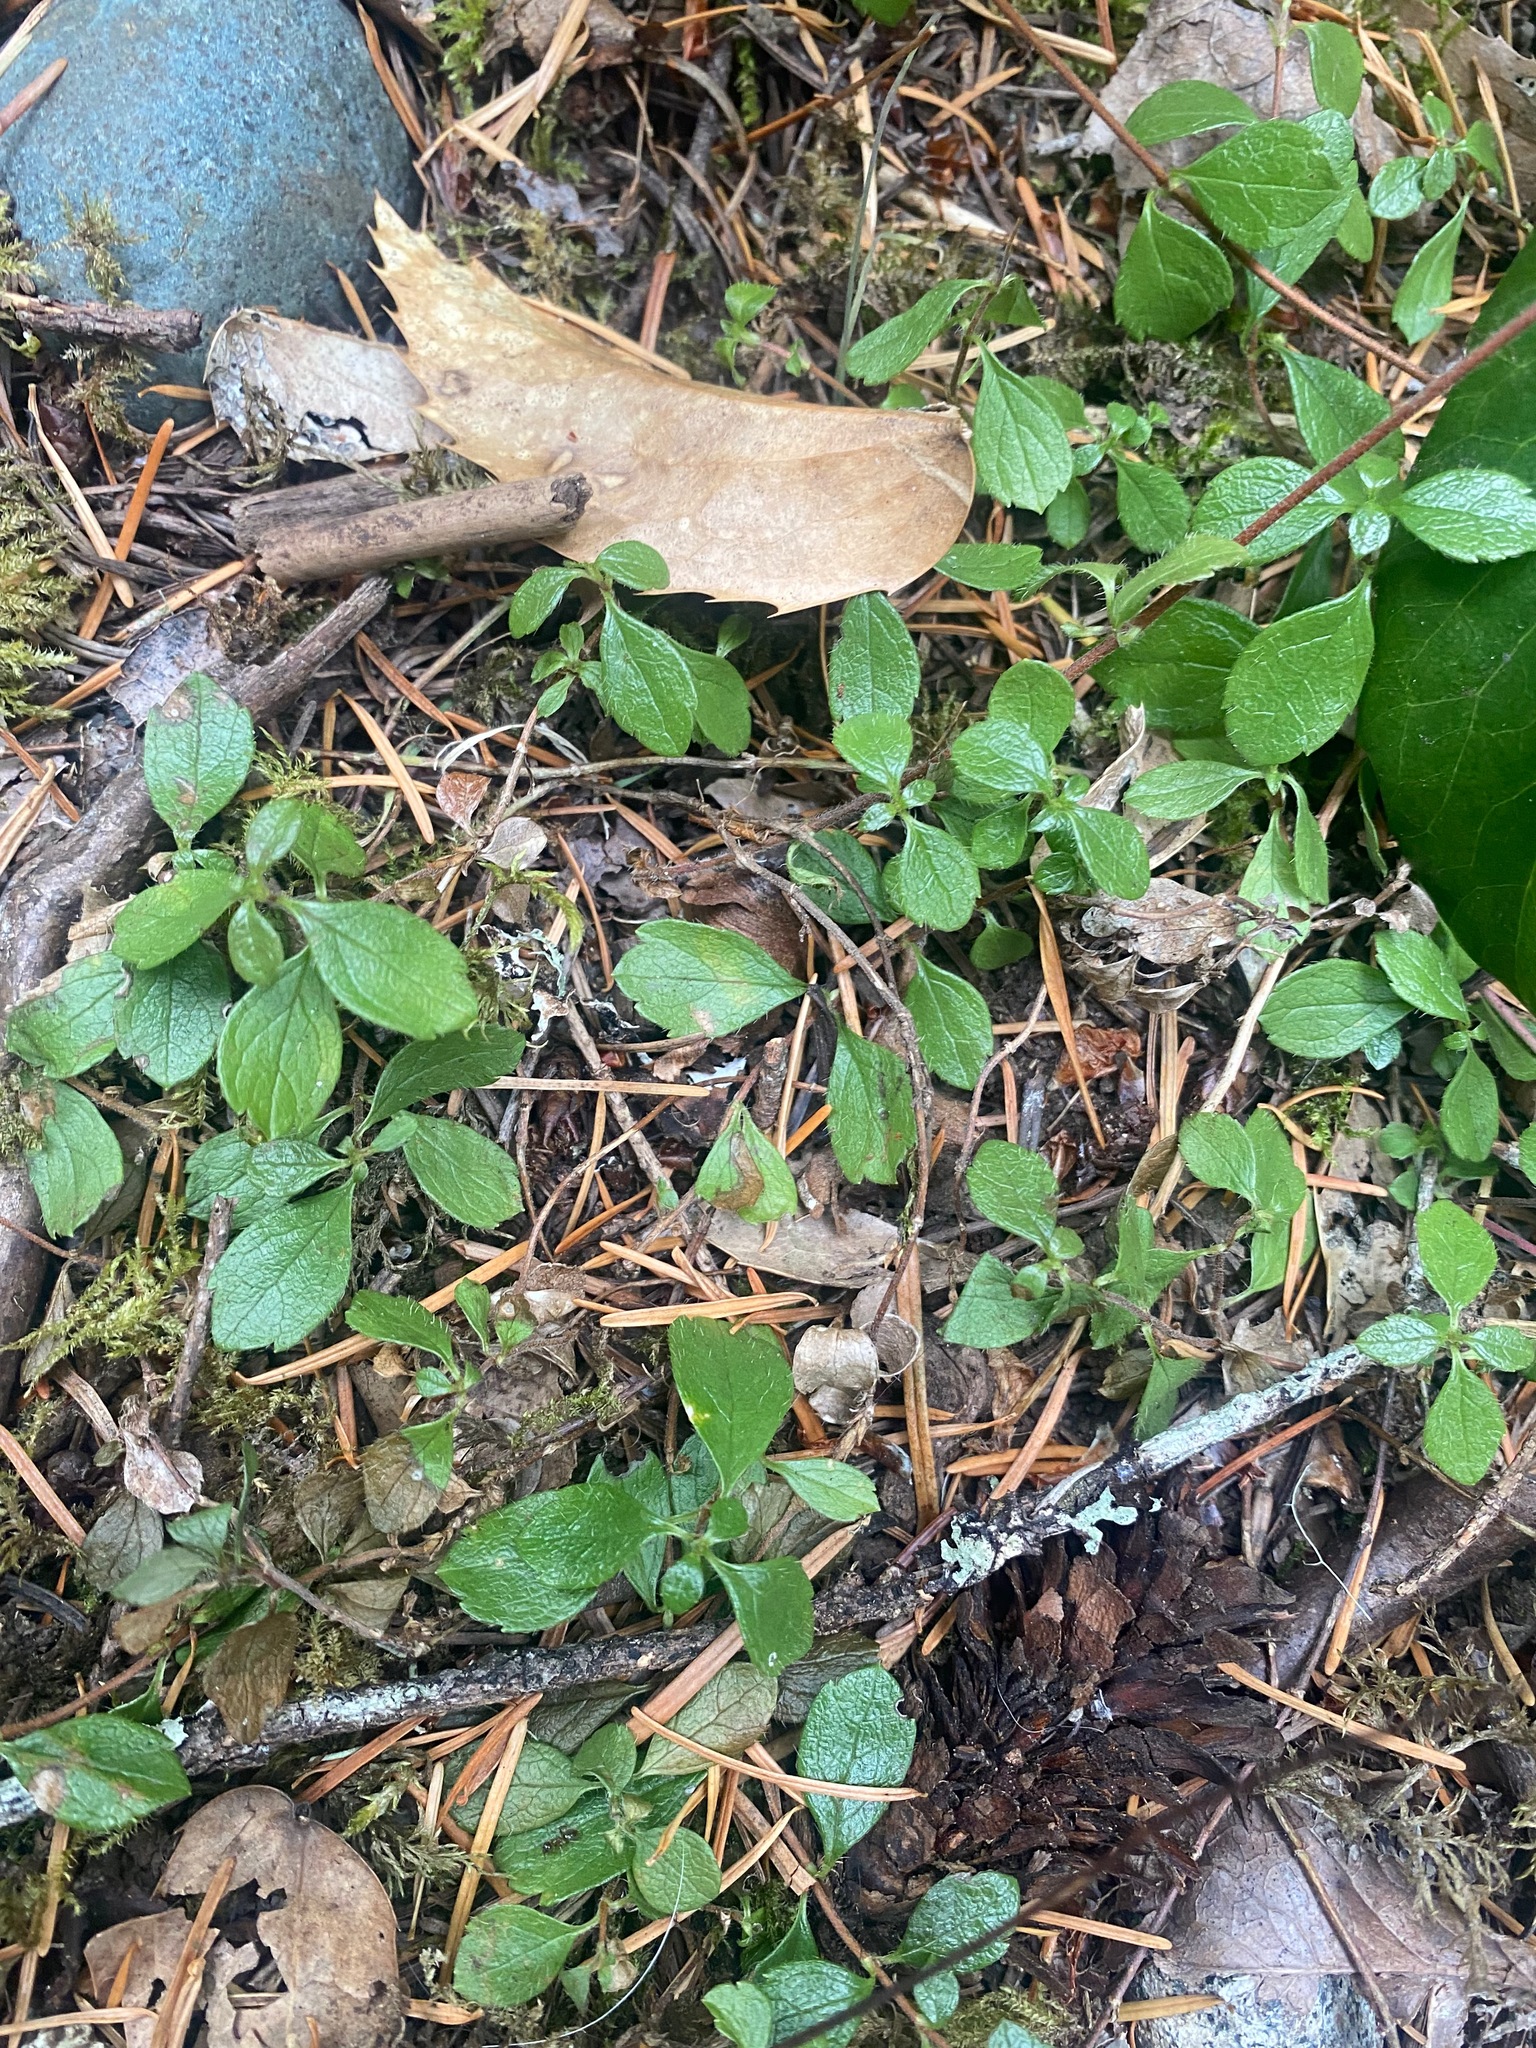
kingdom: Plantae
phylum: Tracheophyta
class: Magnoliopsida
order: Dipsacales
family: Caprifoliaceae
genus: Linnaea
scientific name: Linnaea borealis
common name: Twinflower
